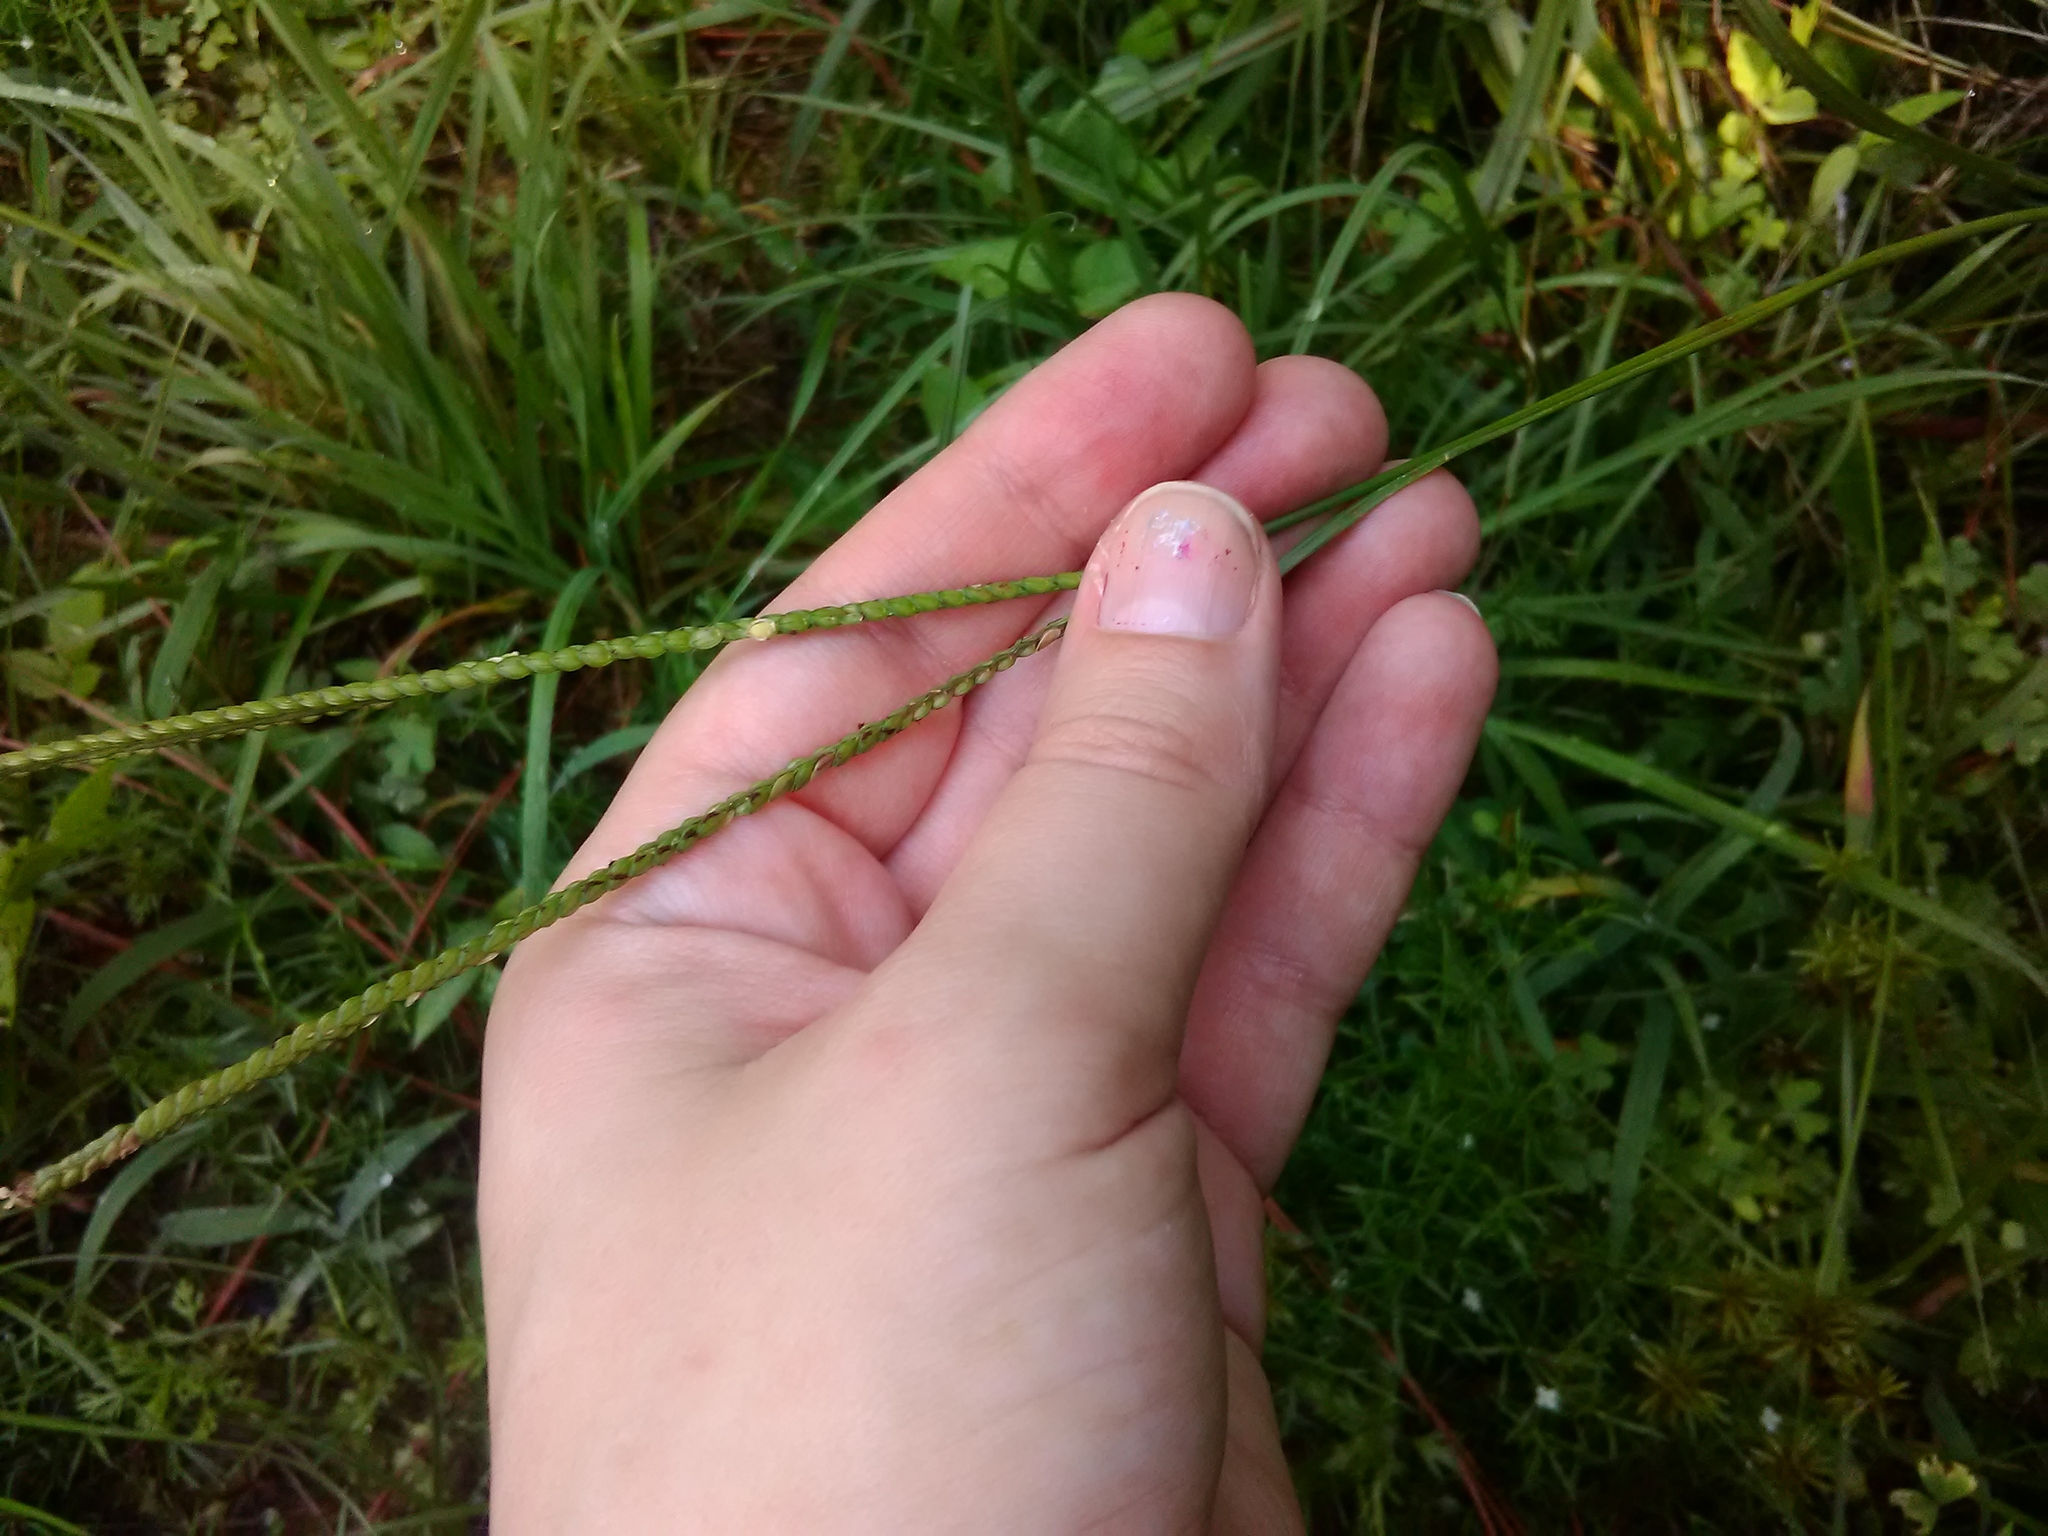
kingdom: Plantae
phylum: Tracheophyta
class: Liliopsida
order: Poales
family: Poaceae
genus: Paspalum
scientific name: Paspalum notatum
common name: Bahiagrass
